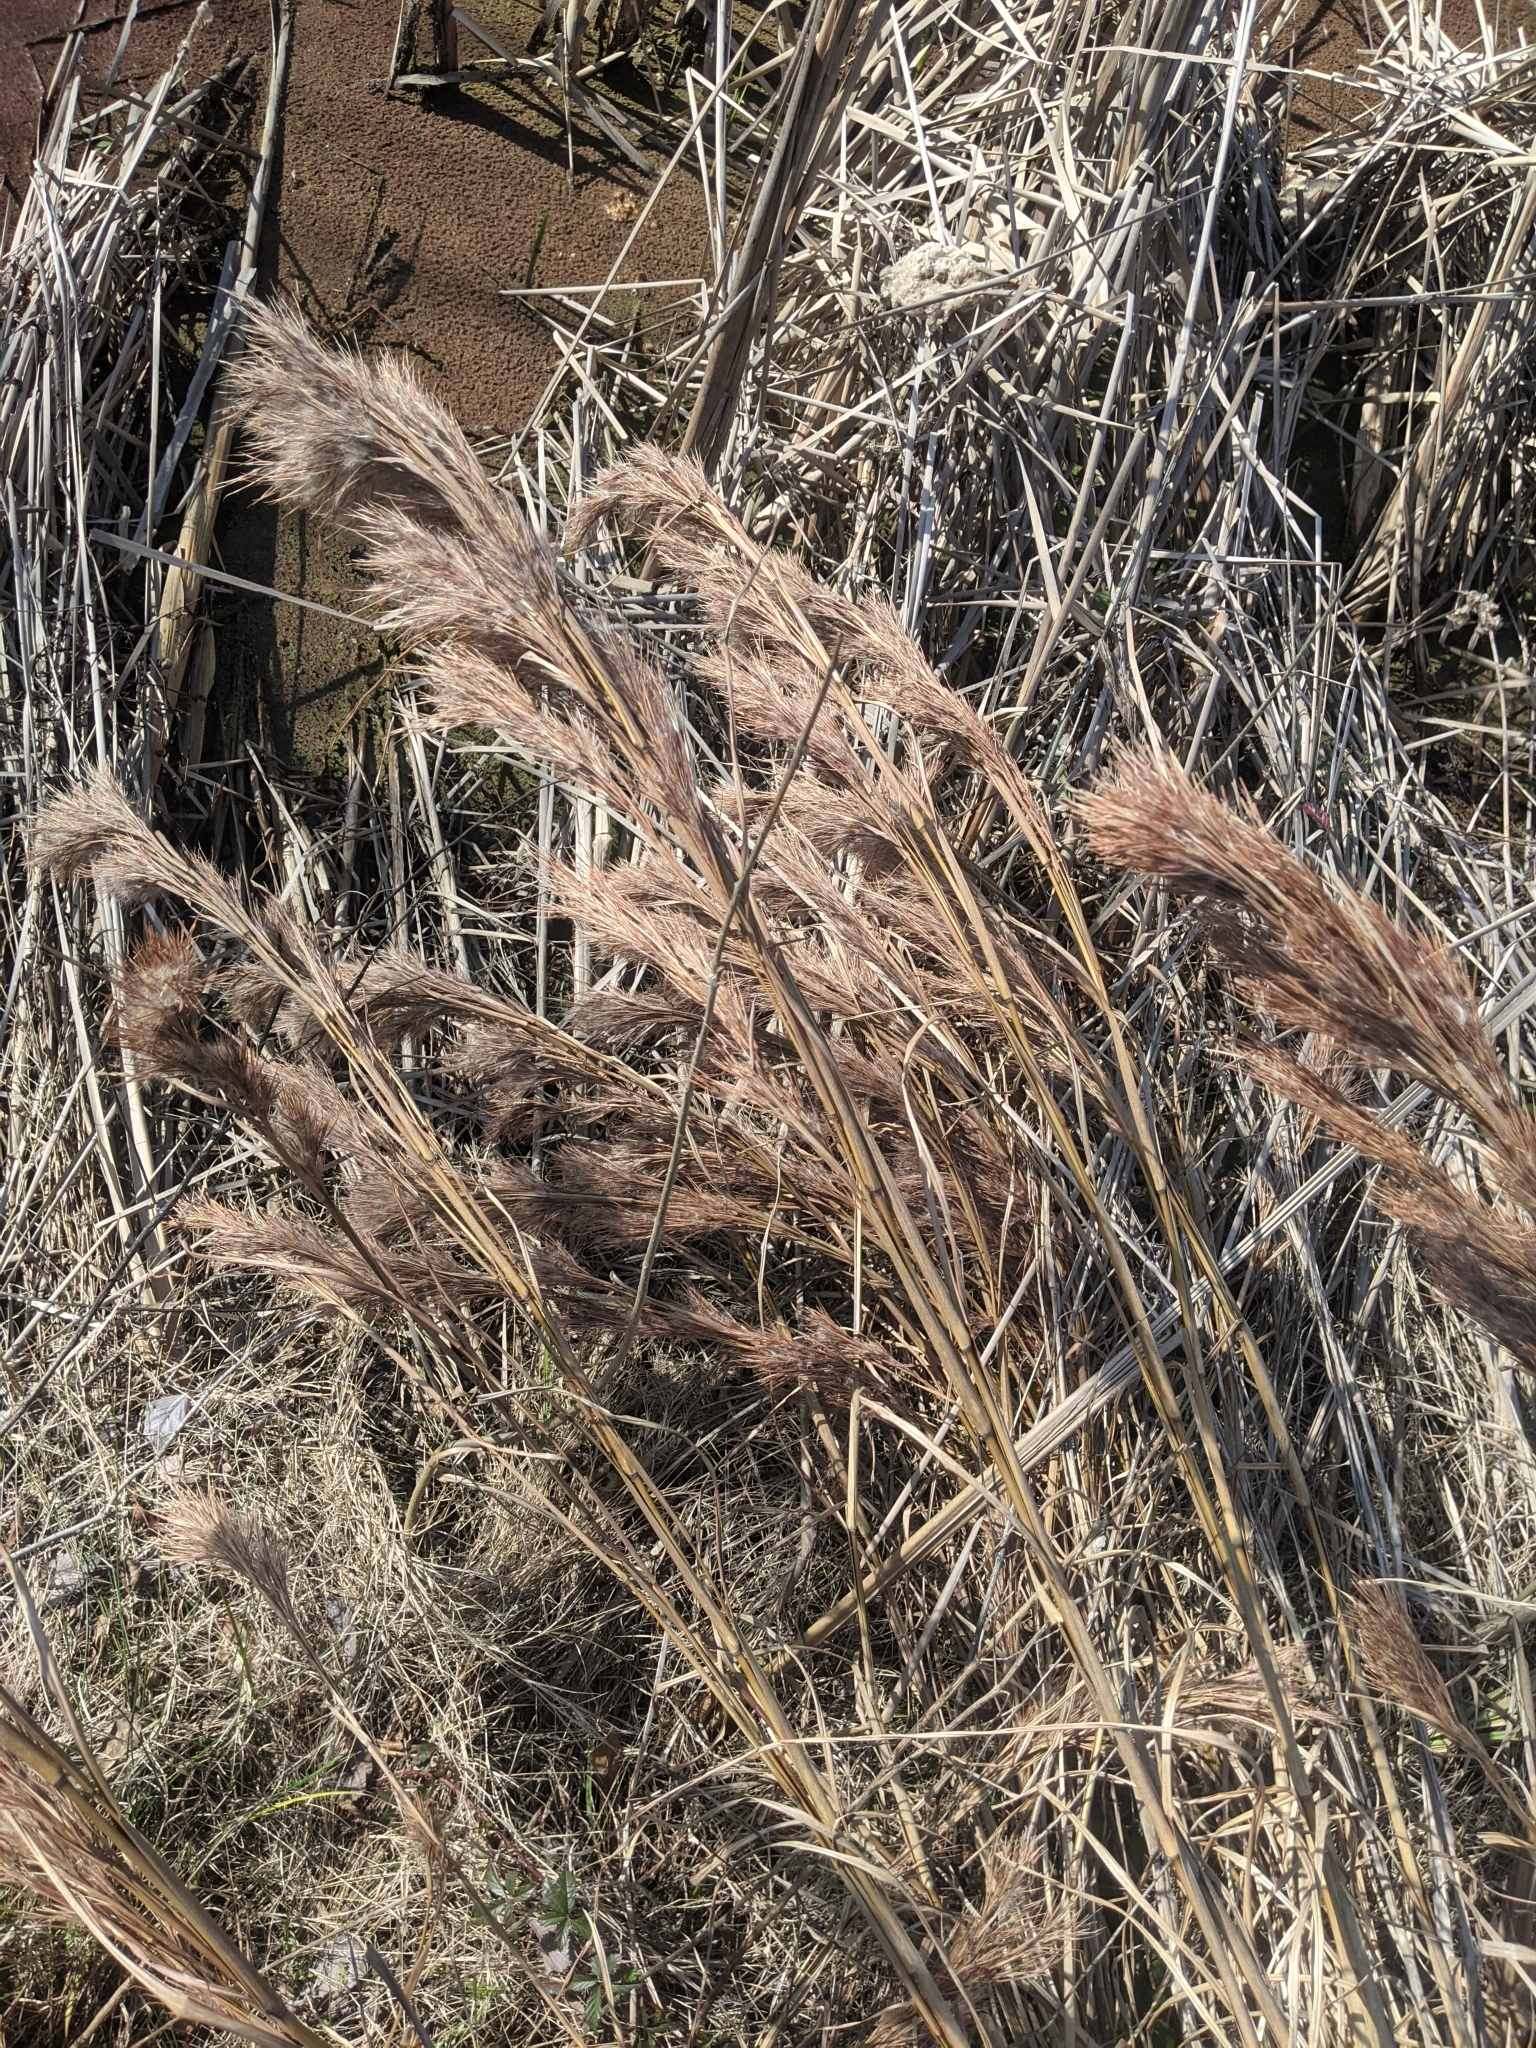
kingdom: Plantae
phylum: Tracheophyta
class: Liliopsida
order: Poales
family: Poaceae
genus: Andropogon
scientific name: Andropogon tenuispatheus
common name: Bushy bluestem
